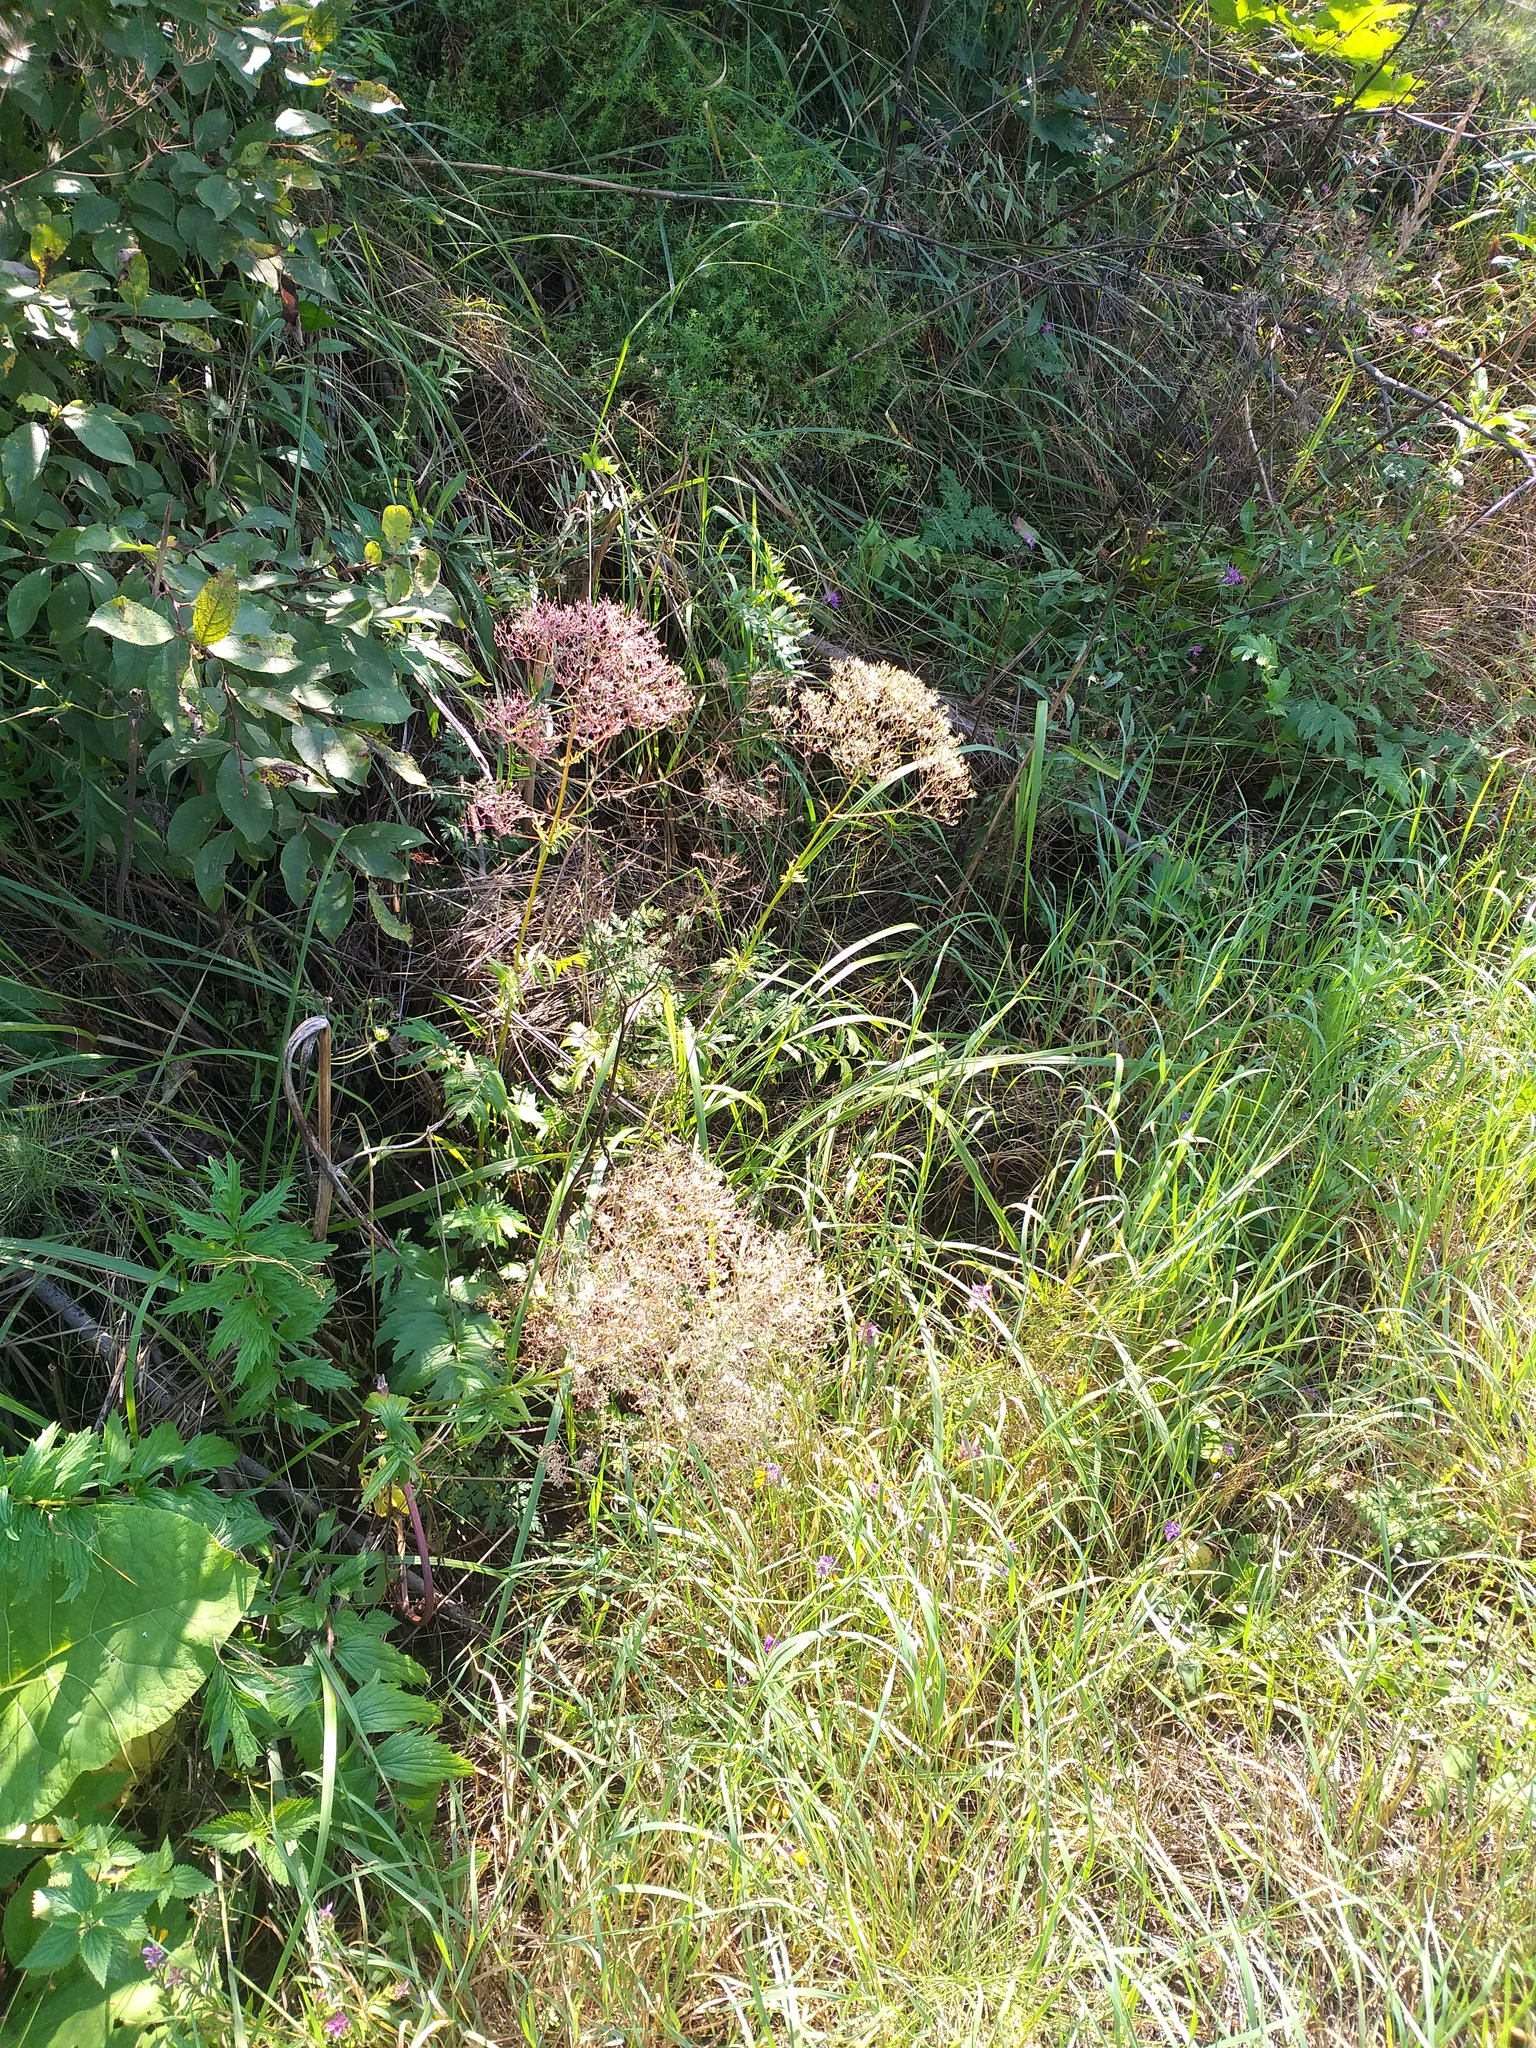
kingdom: Plantae
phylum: Tracheophyta
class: Magnoliopsida
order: Dipsacales
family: Caprifoliaceae
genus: Valeriana
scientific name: Valeriana officinalis
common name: Common valerian
